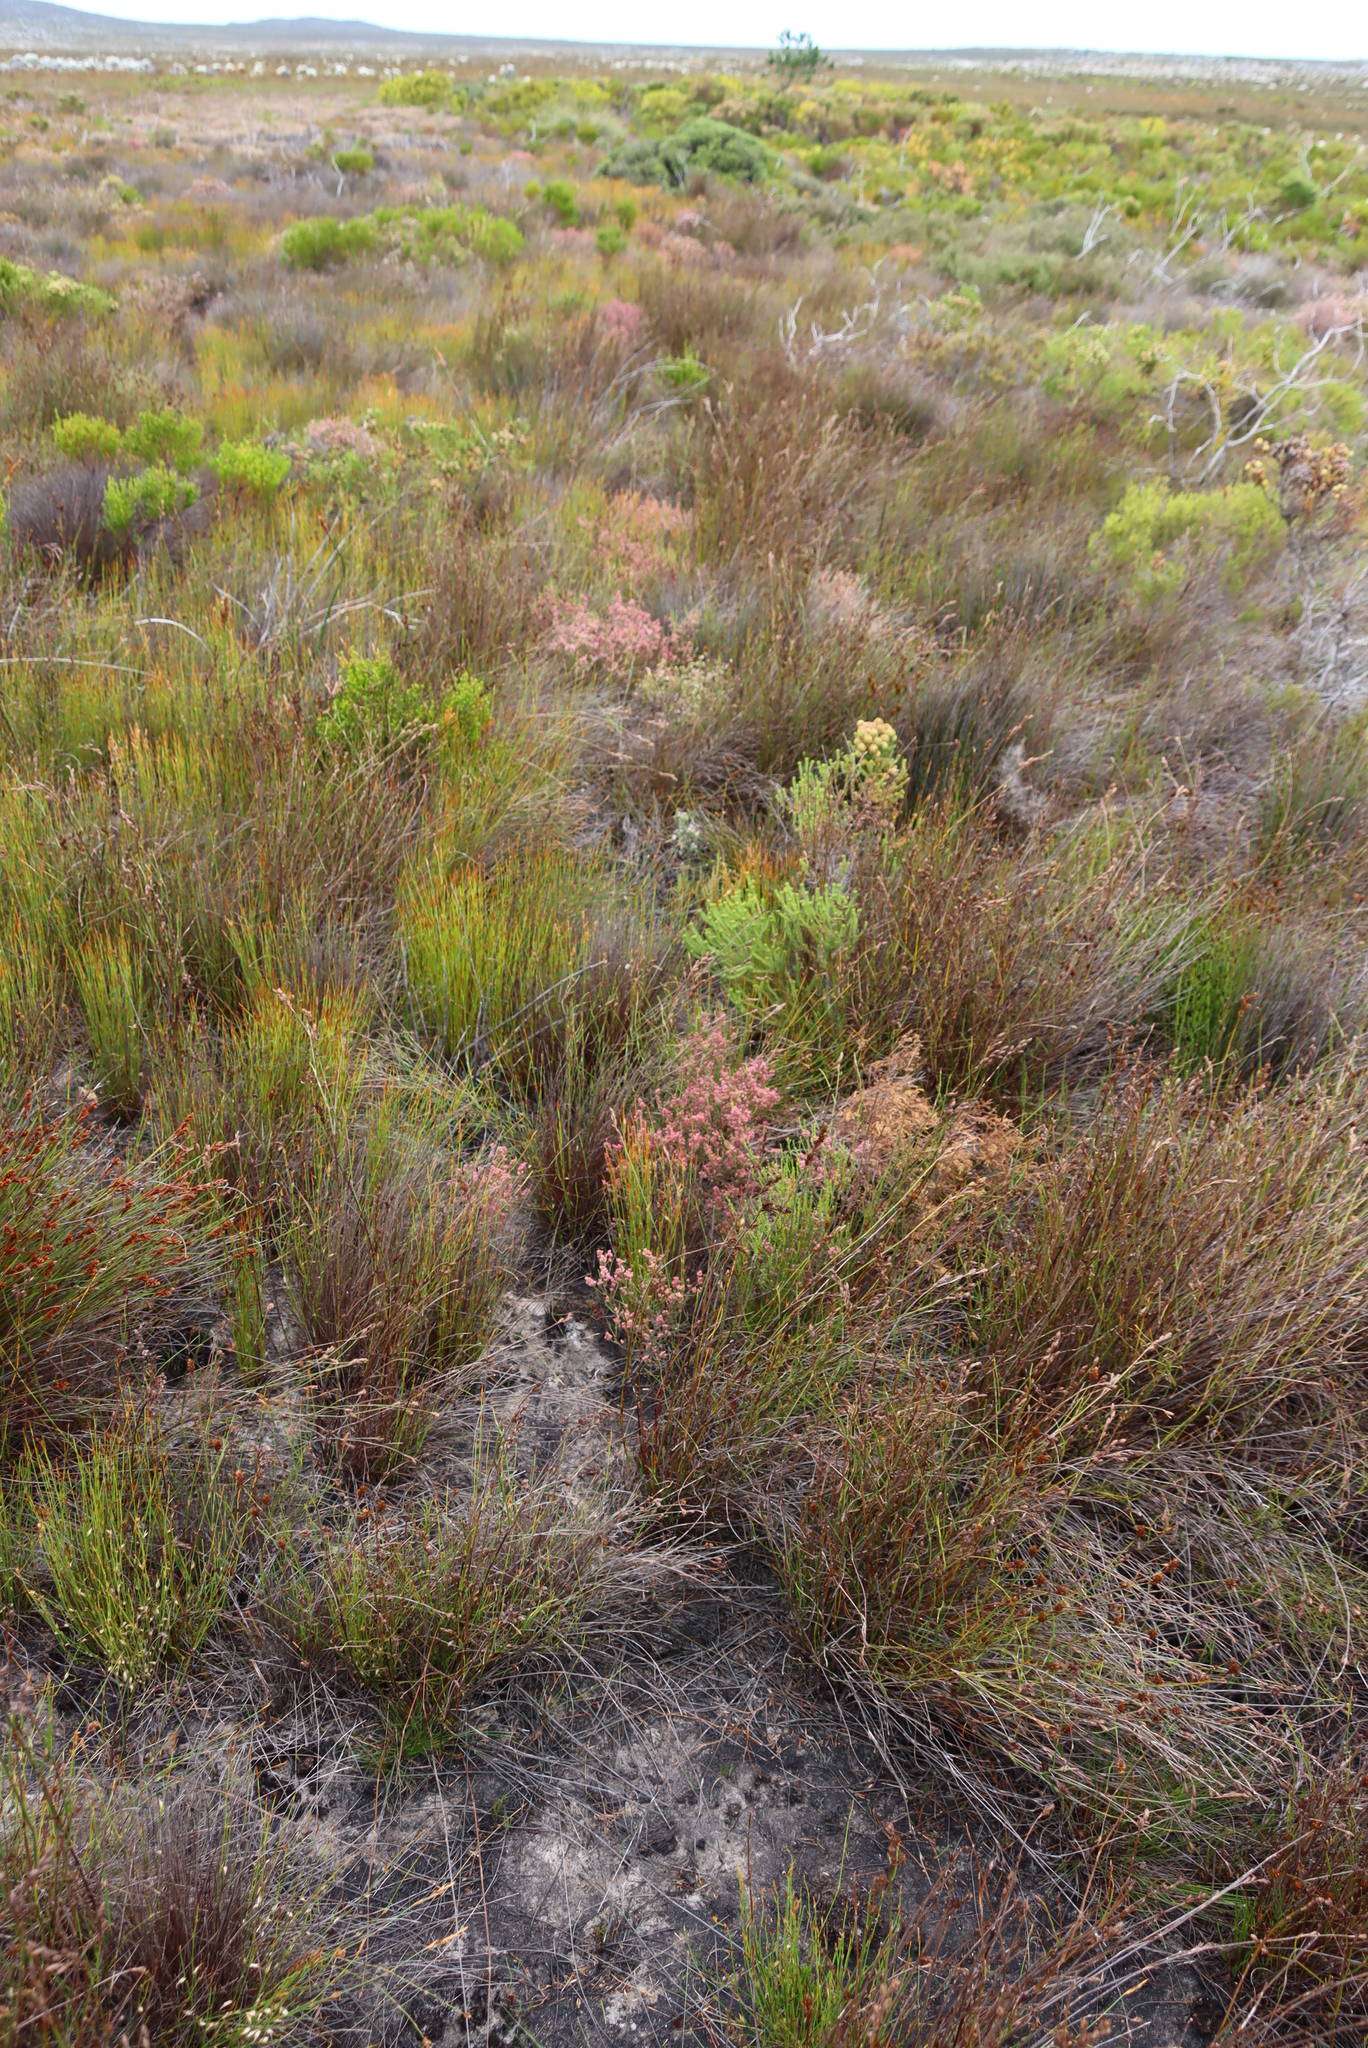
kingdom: Plantae
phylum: Tracheophyta
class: Magnoliopsida
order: Ericales
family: Ericaceae
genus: Erica
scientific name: Erica gnaphaloides
